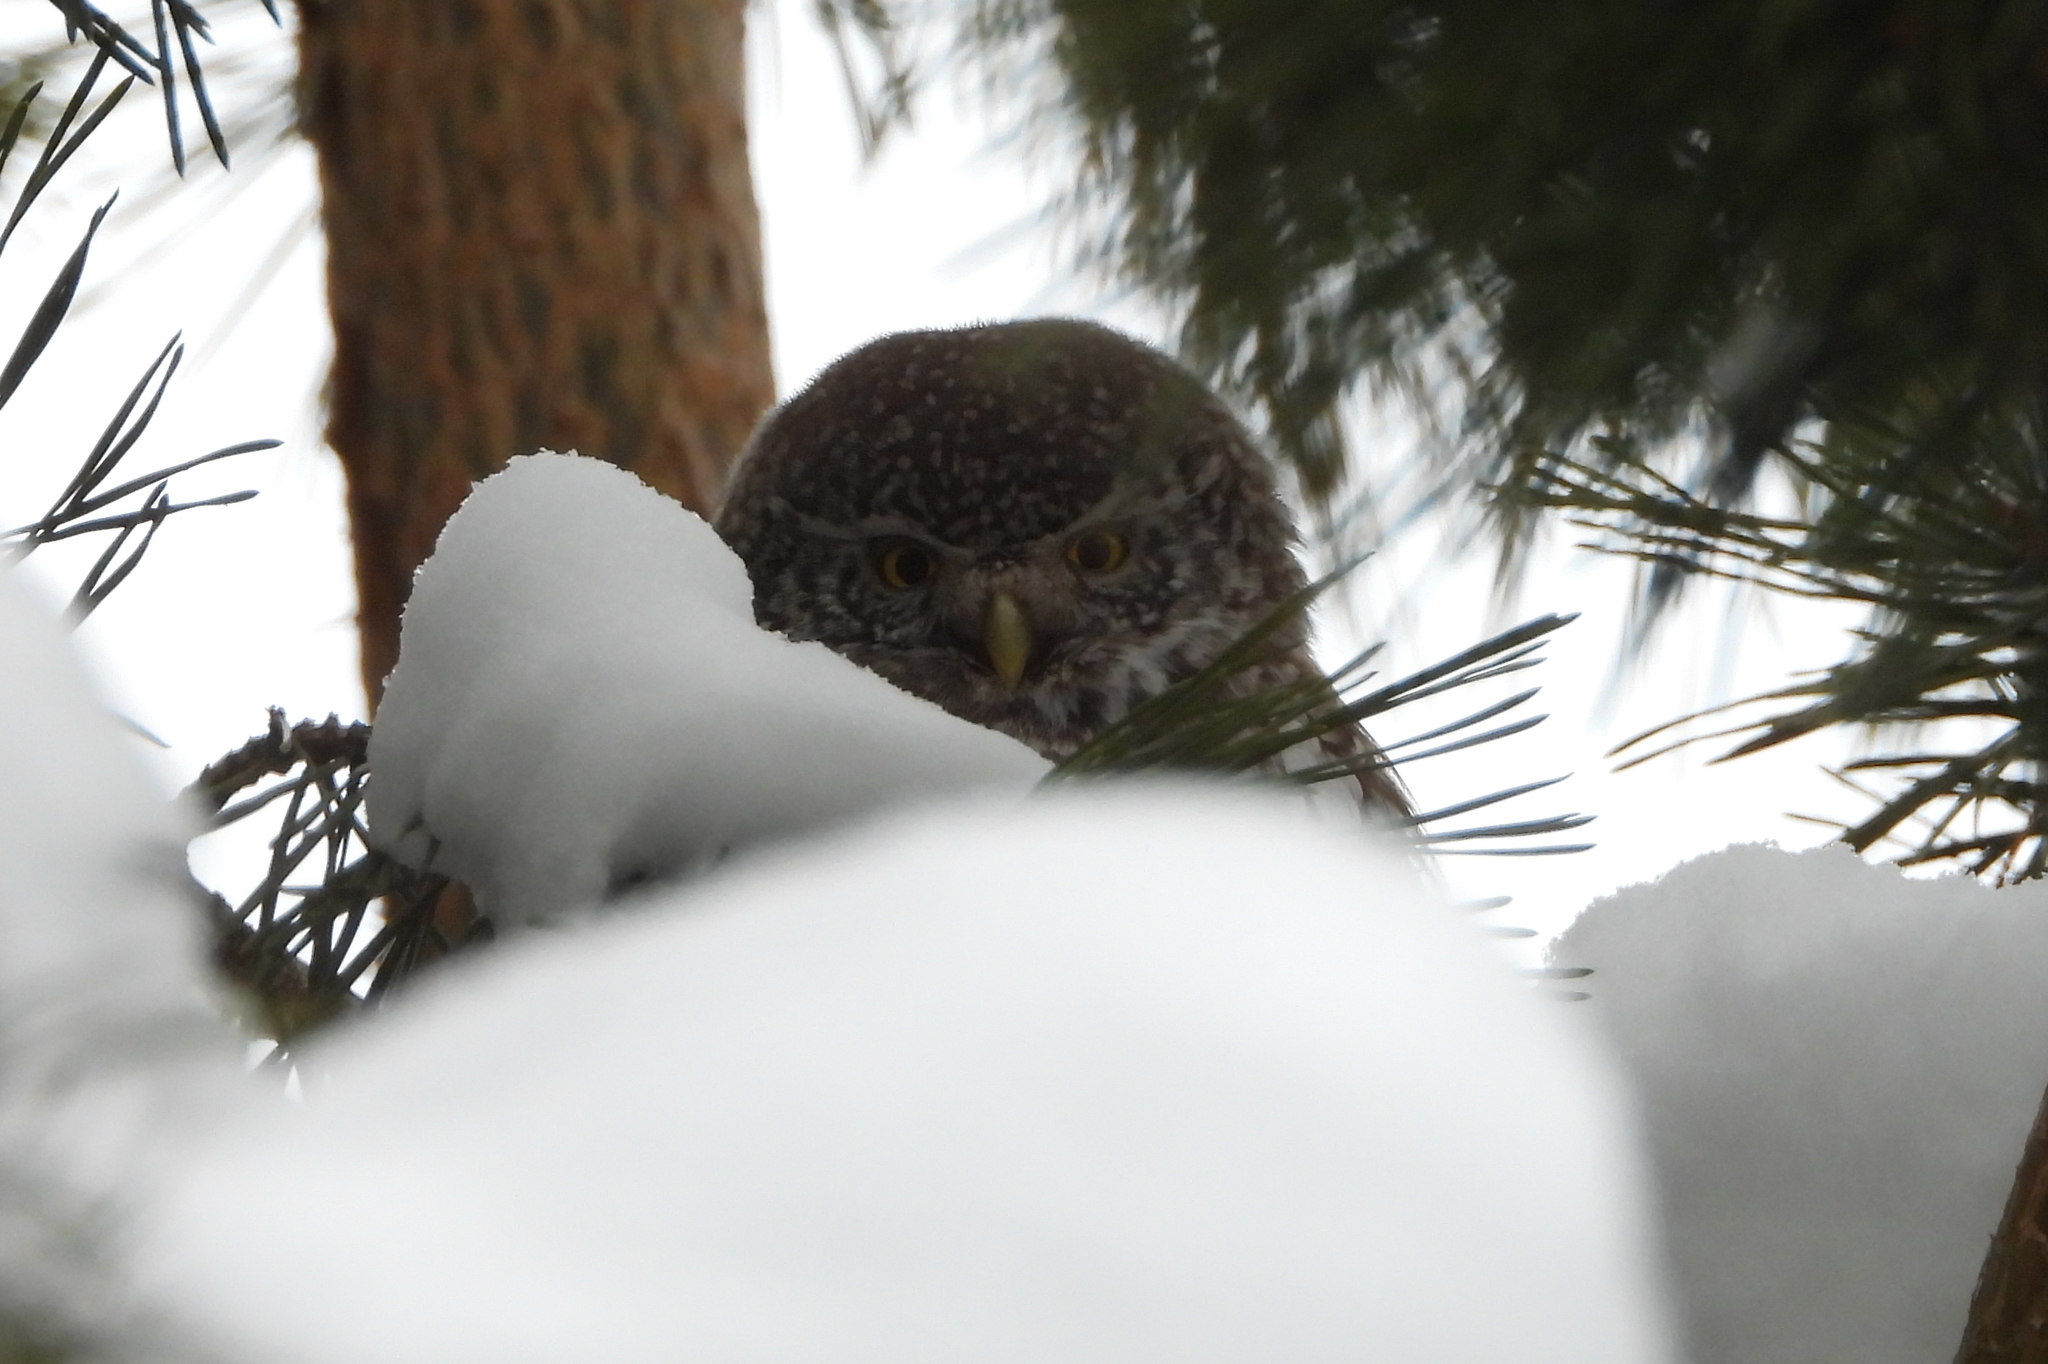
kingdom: Animalia
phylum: Chordata
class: Aves
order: Strigiformes
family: Strigidae
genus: Glaucidium
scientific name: Glaucidium passerinum
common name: Eurasian pygmy owl
